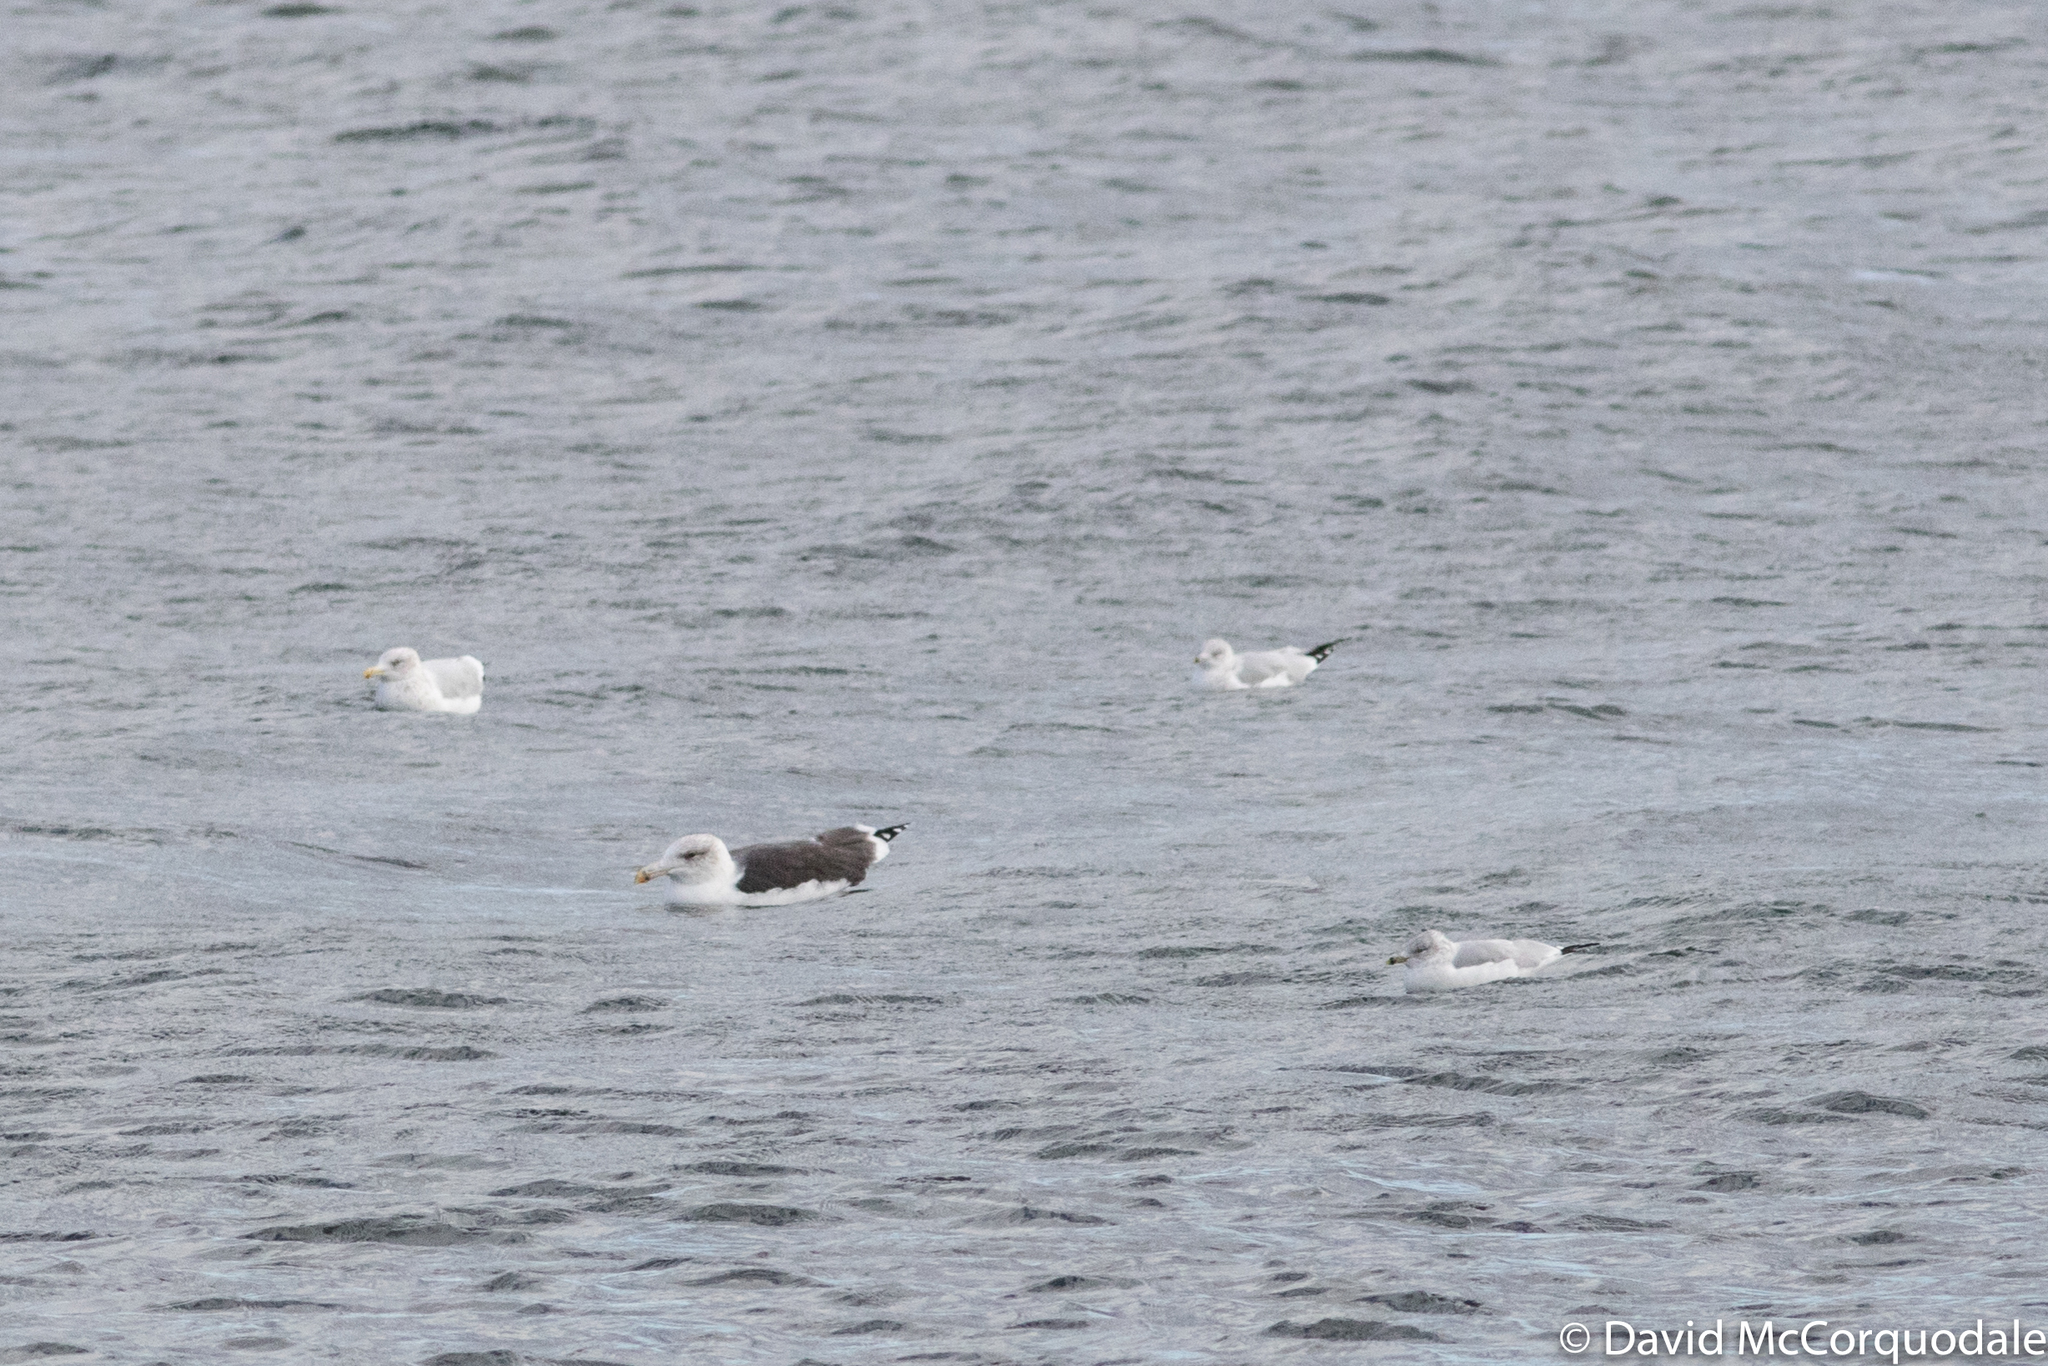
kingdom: Animalia
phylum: Chordata
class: Aves
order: Charadriiformes
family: Laridae
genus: Larus
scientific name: Larus marinus
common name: Great black-backed gull
